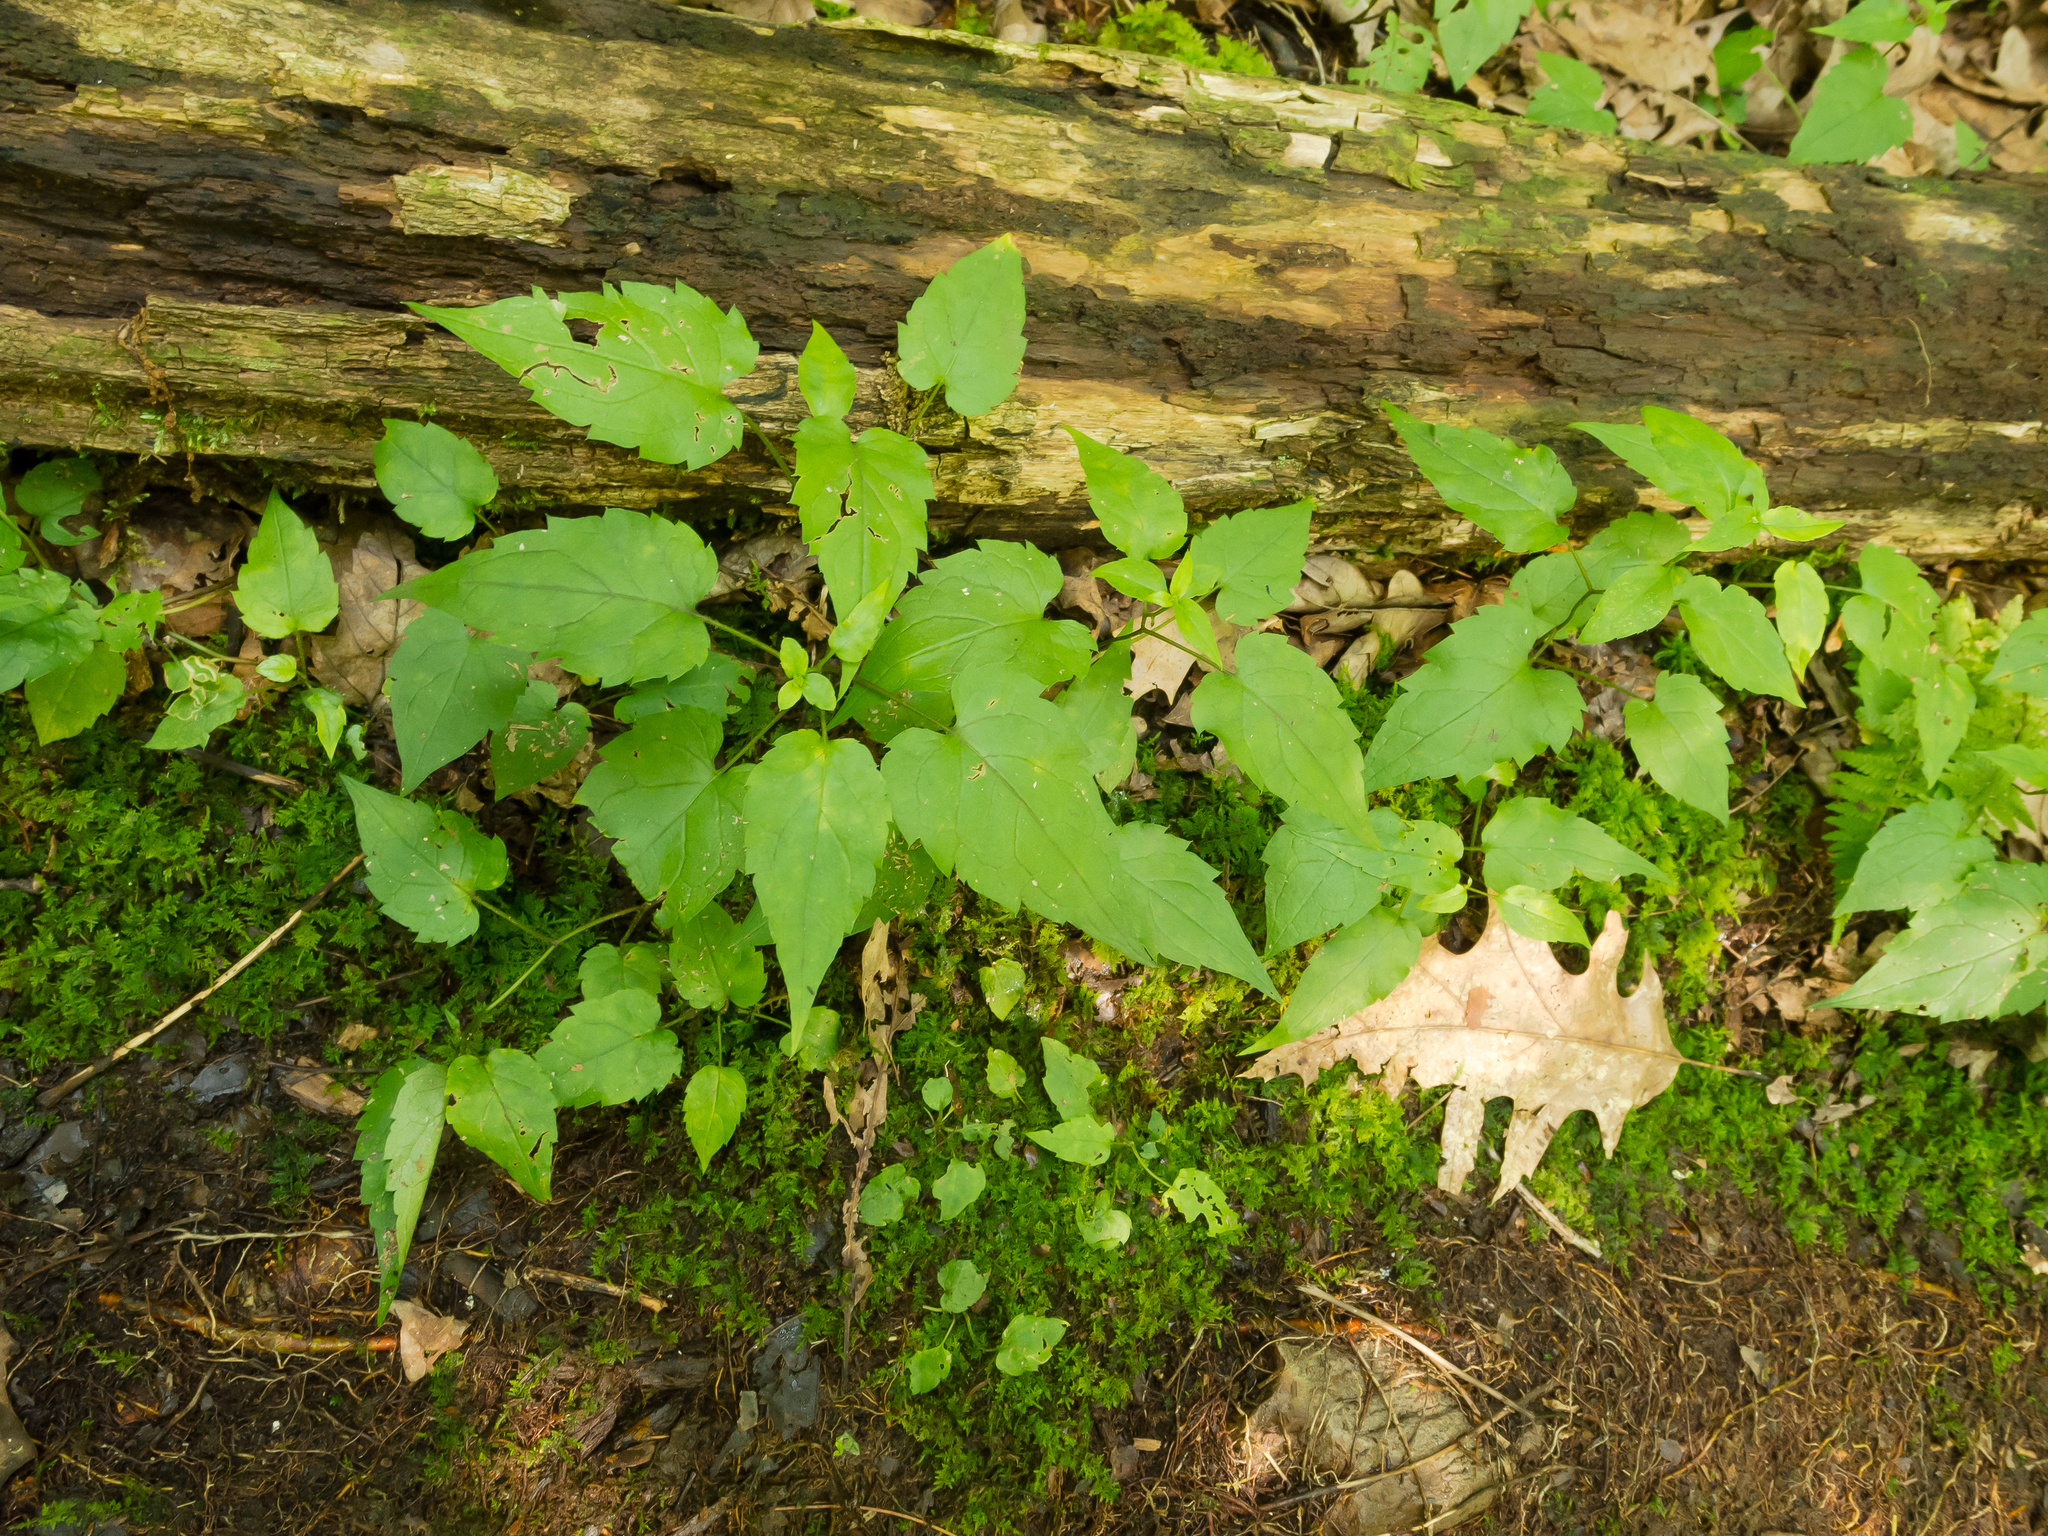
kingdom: Plantae
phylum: Tracheophyta
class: Magnoliopsida
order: Asterales
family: Asteraceae
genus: Eurybia
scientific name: Eurybia divaricata
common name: White wood aster
